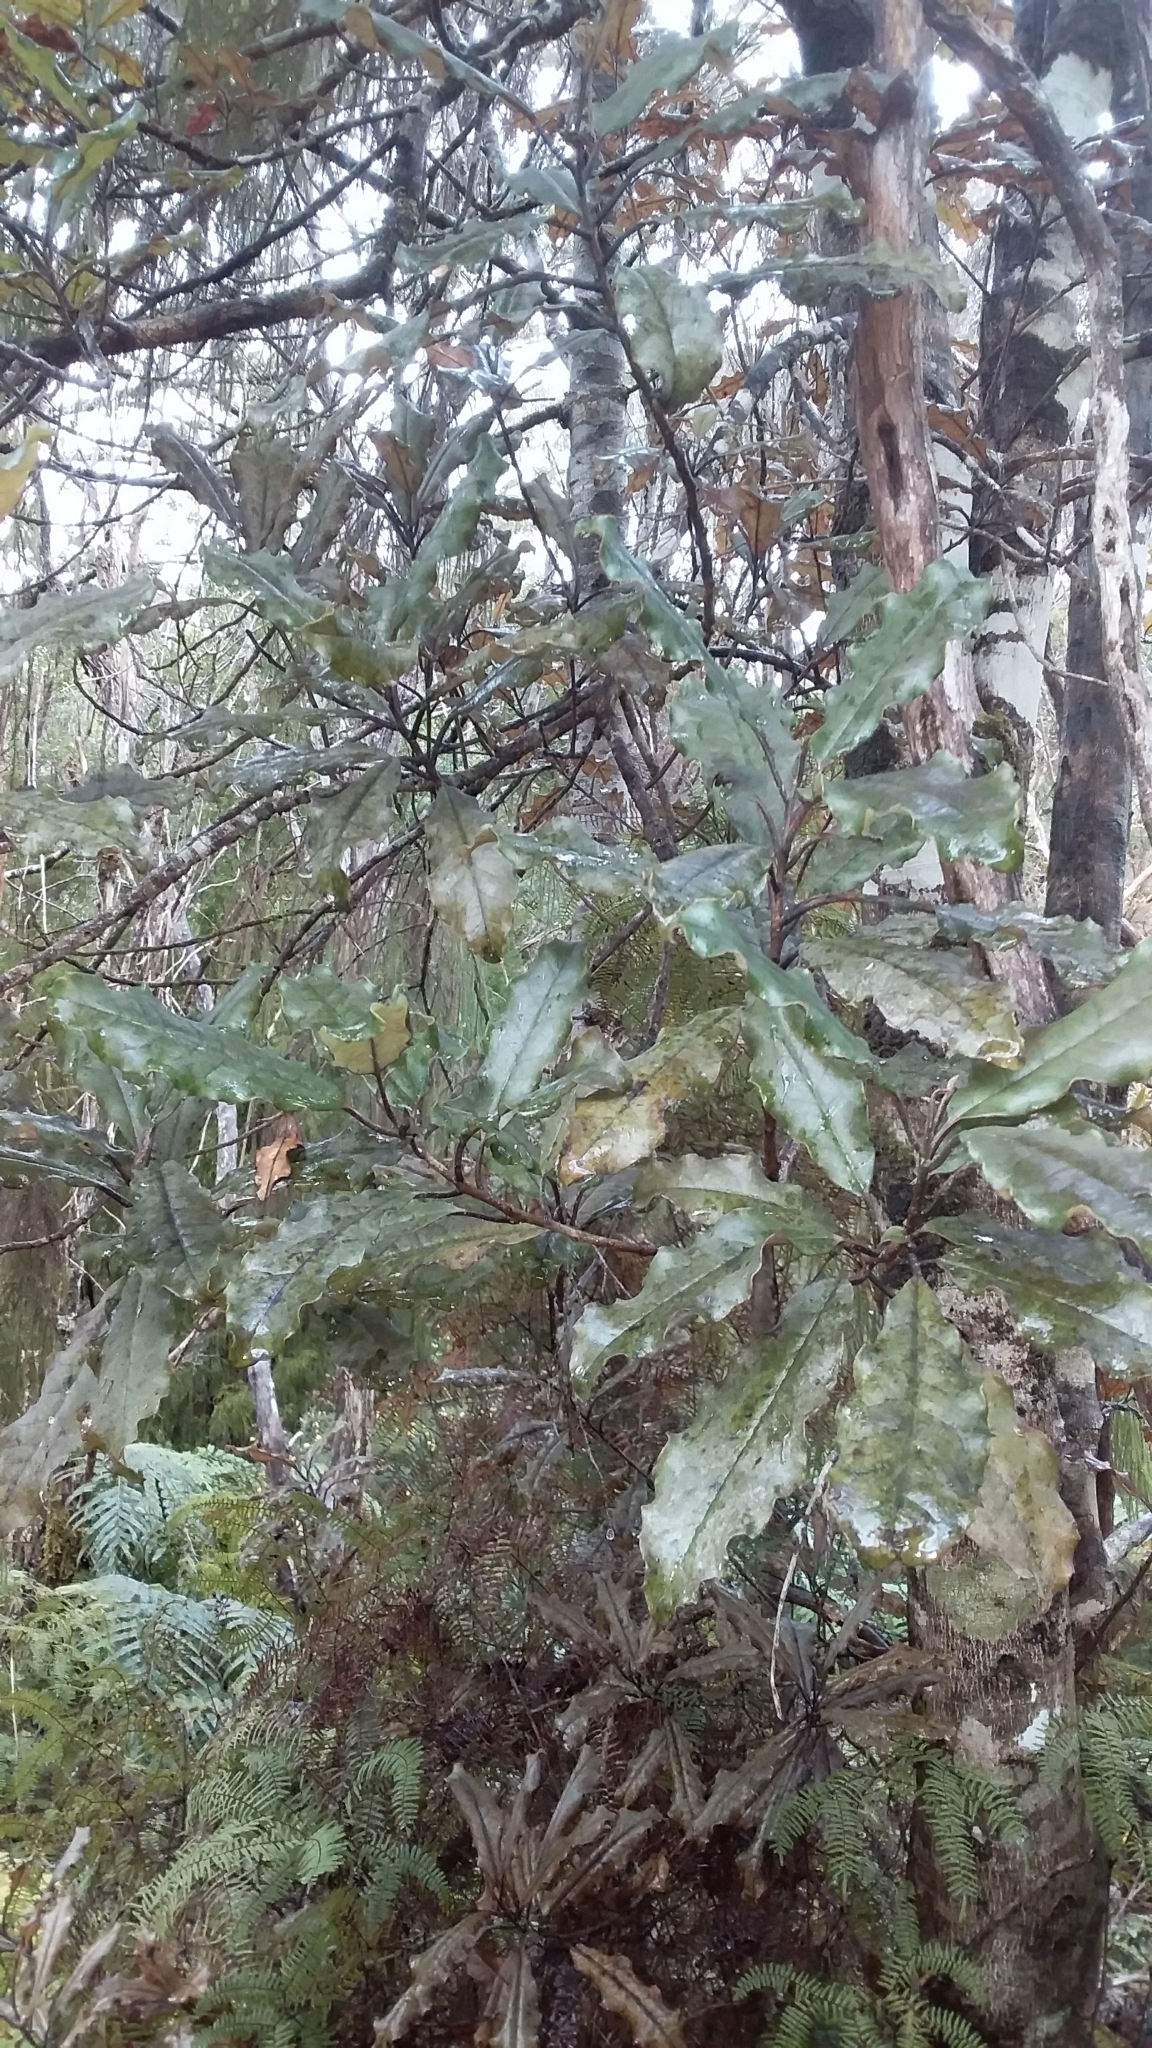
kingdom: Plantae
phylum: Tracheophyta
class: Magnoliopsida
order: Paracryphiales
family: Paracryphiaceae
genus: Quintinia
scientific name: Quintinia serrata
